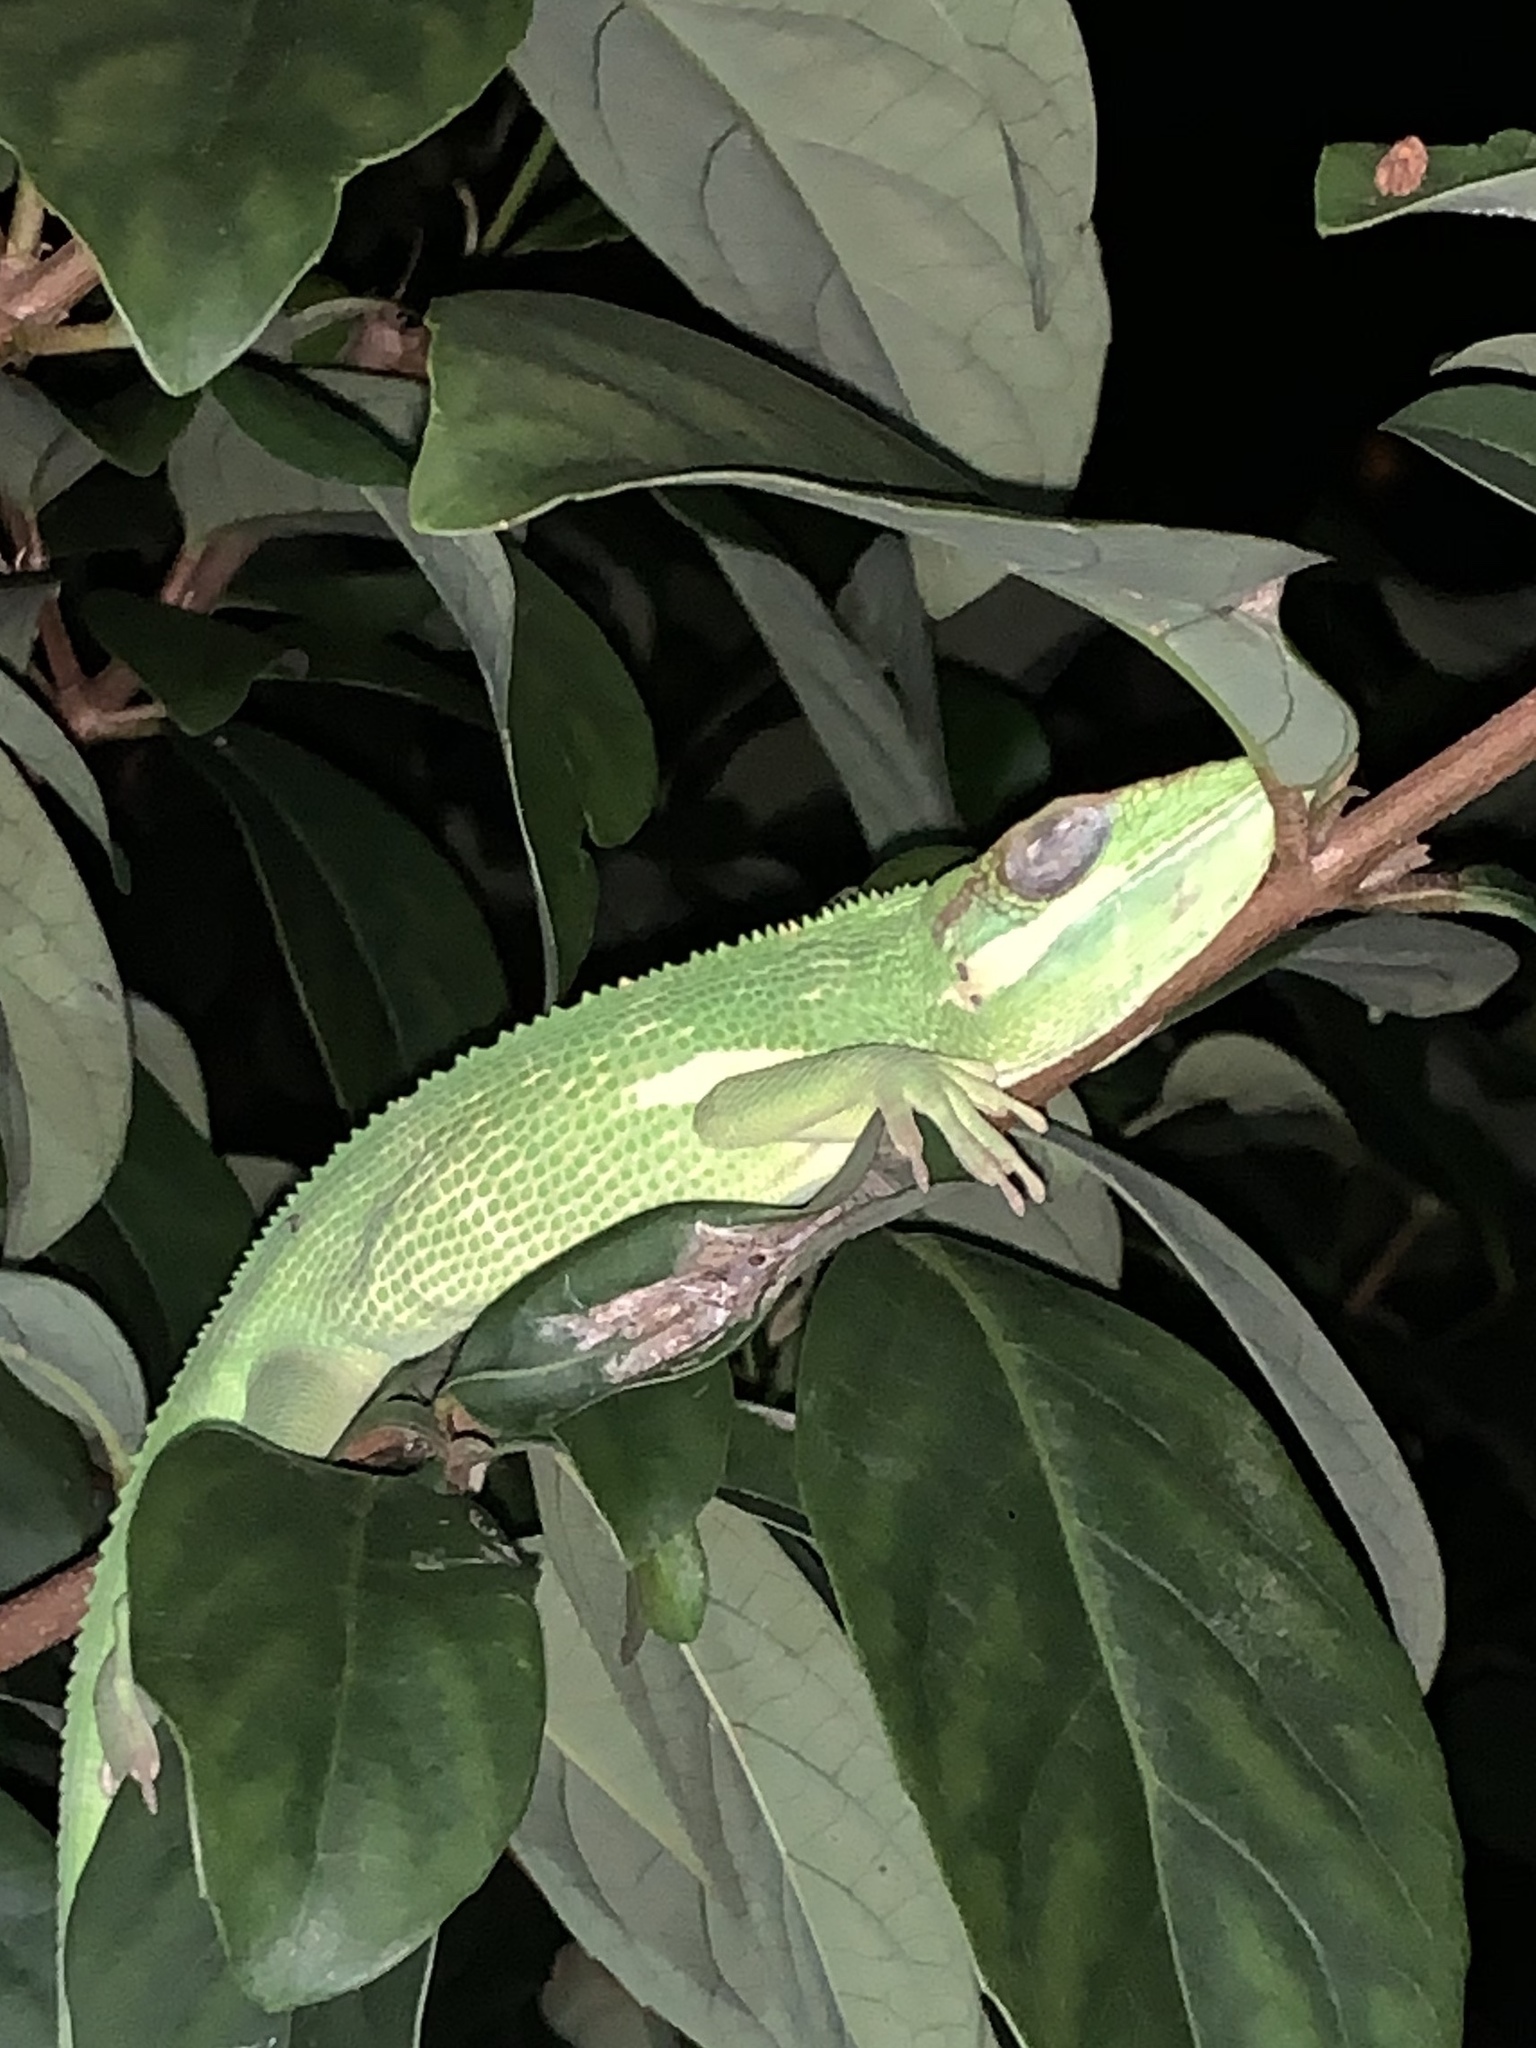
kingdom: Animalia
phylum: Chordata
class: Squamata
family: Dactyloidae
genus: Anolis
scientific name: Anolis equestris
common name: Knight anole
